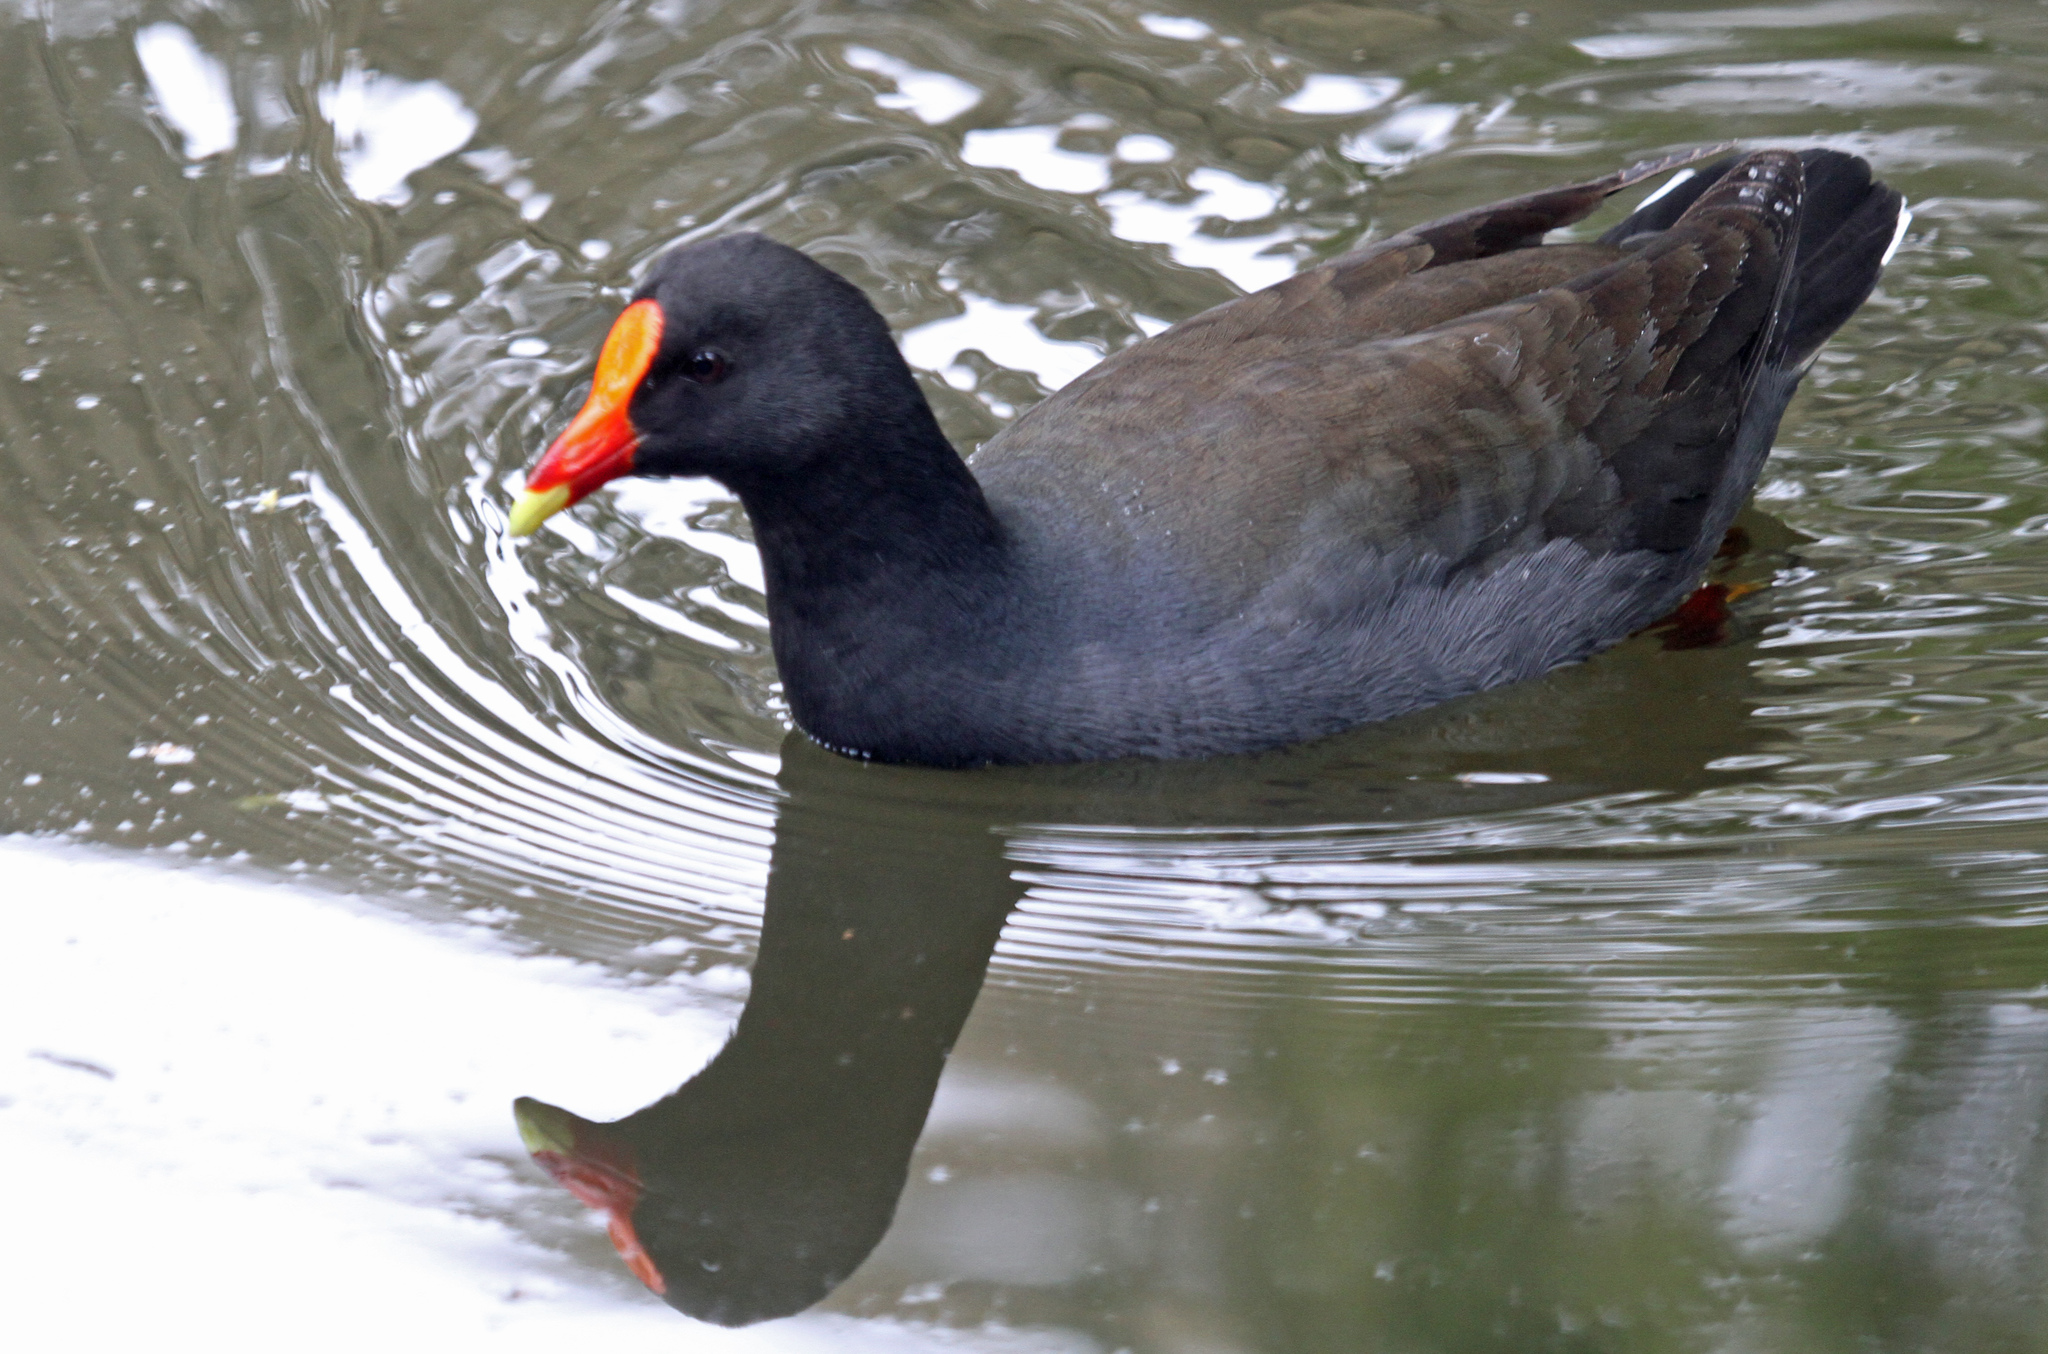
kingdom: Animalia
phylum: Chordata
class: Aves
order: Gruiformes
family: Rallidae
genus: Gallinula
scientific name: Gallinula tenebrosa
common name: Dusky moorhen
